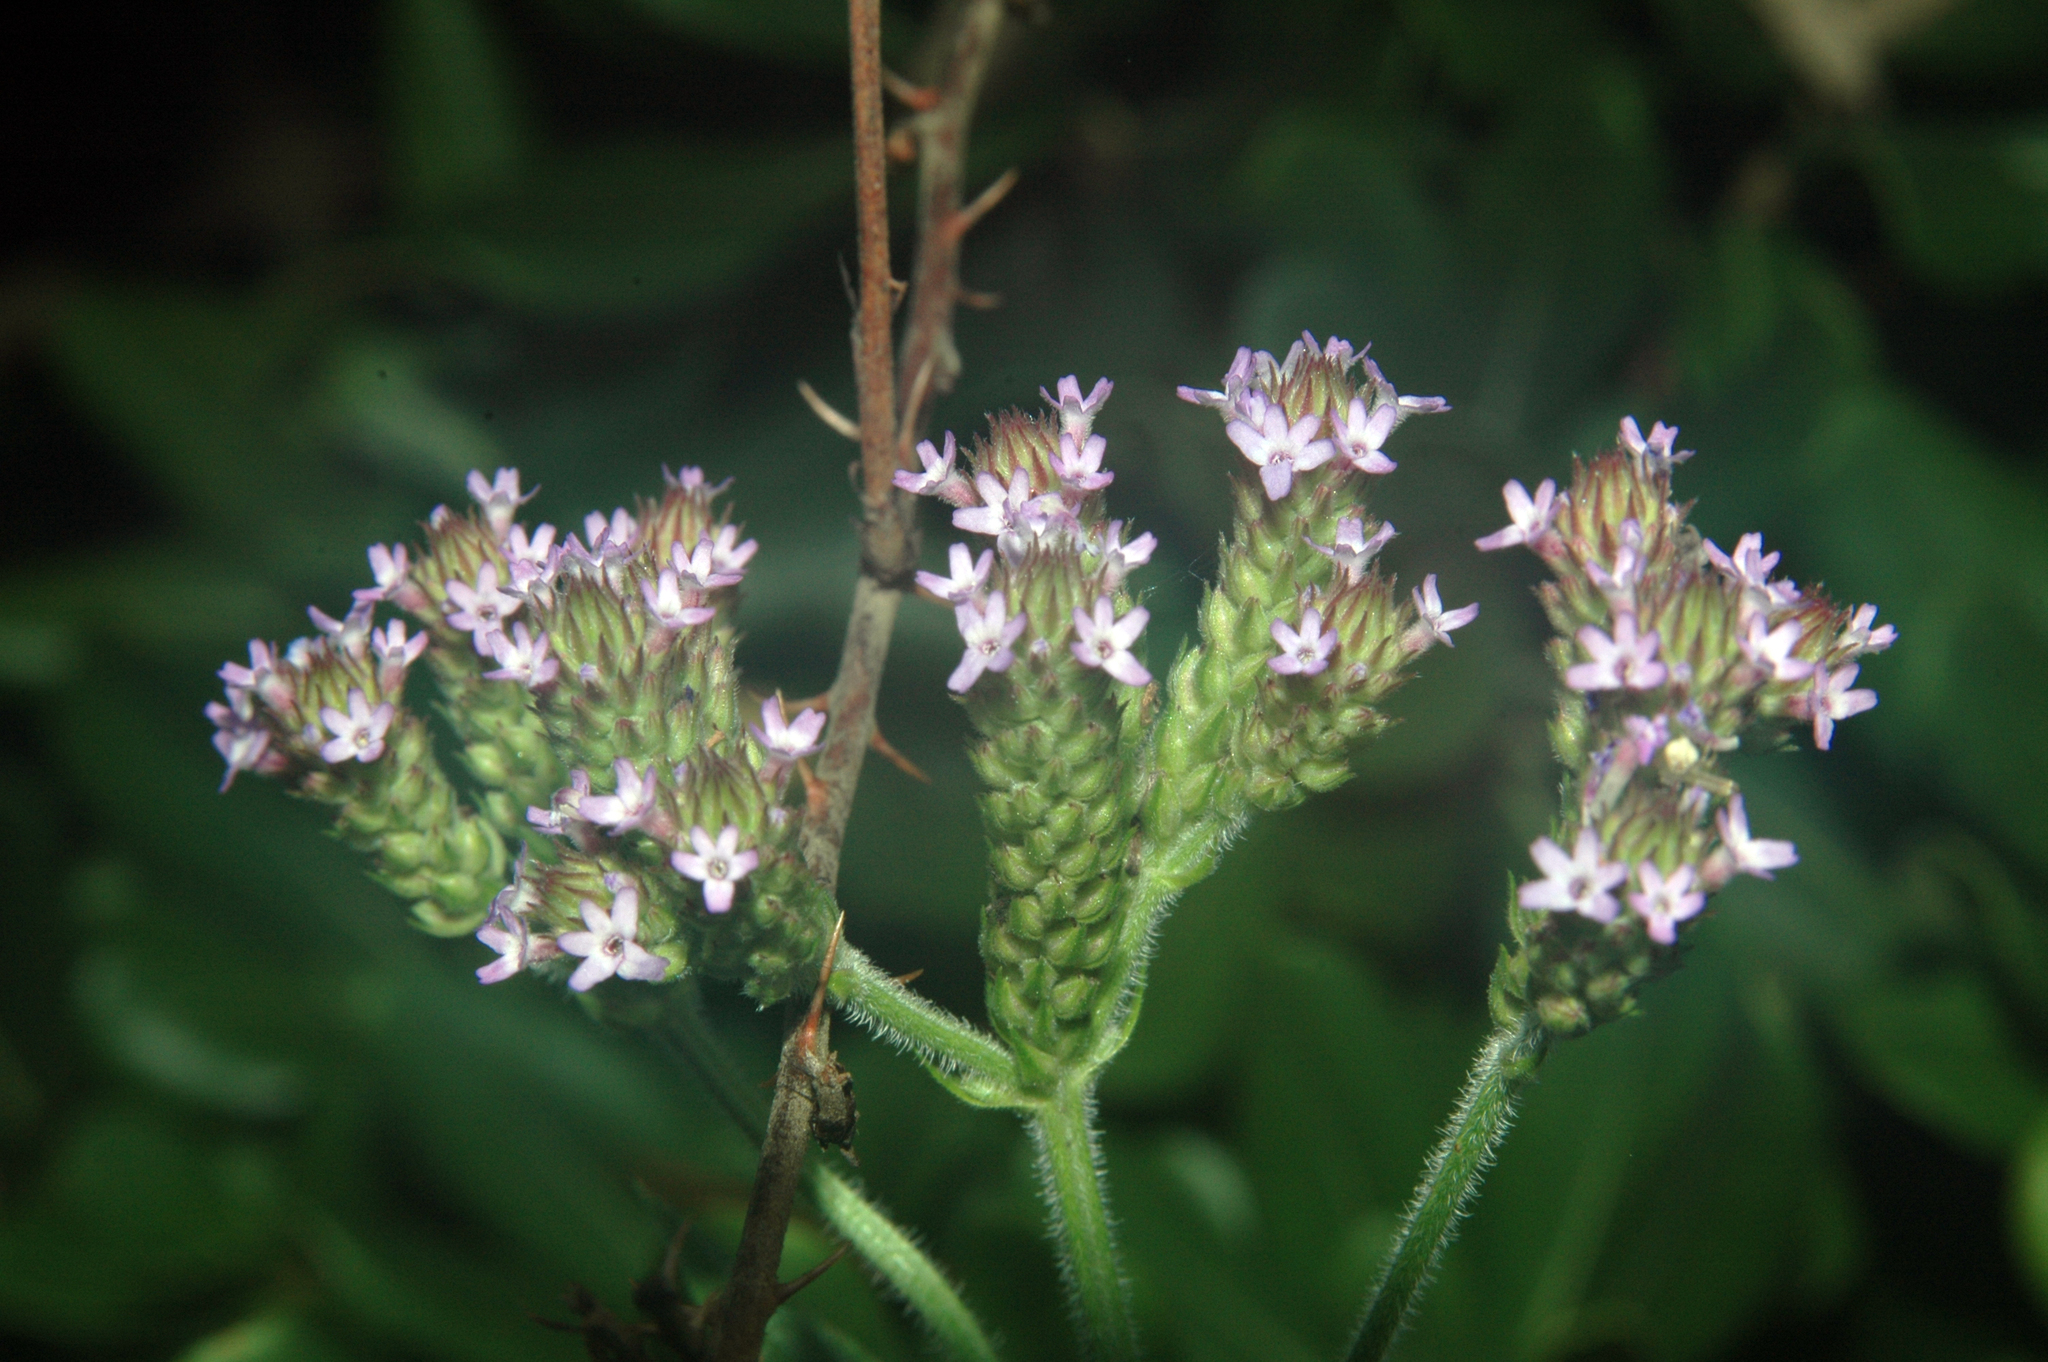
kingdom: Plantae
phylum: Tracheophyta
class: Magnoliopsida
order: Lamiales
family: Verbenaceae
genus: Verbena
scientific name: Verbena brasiliensis
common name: Brazilian vervain
